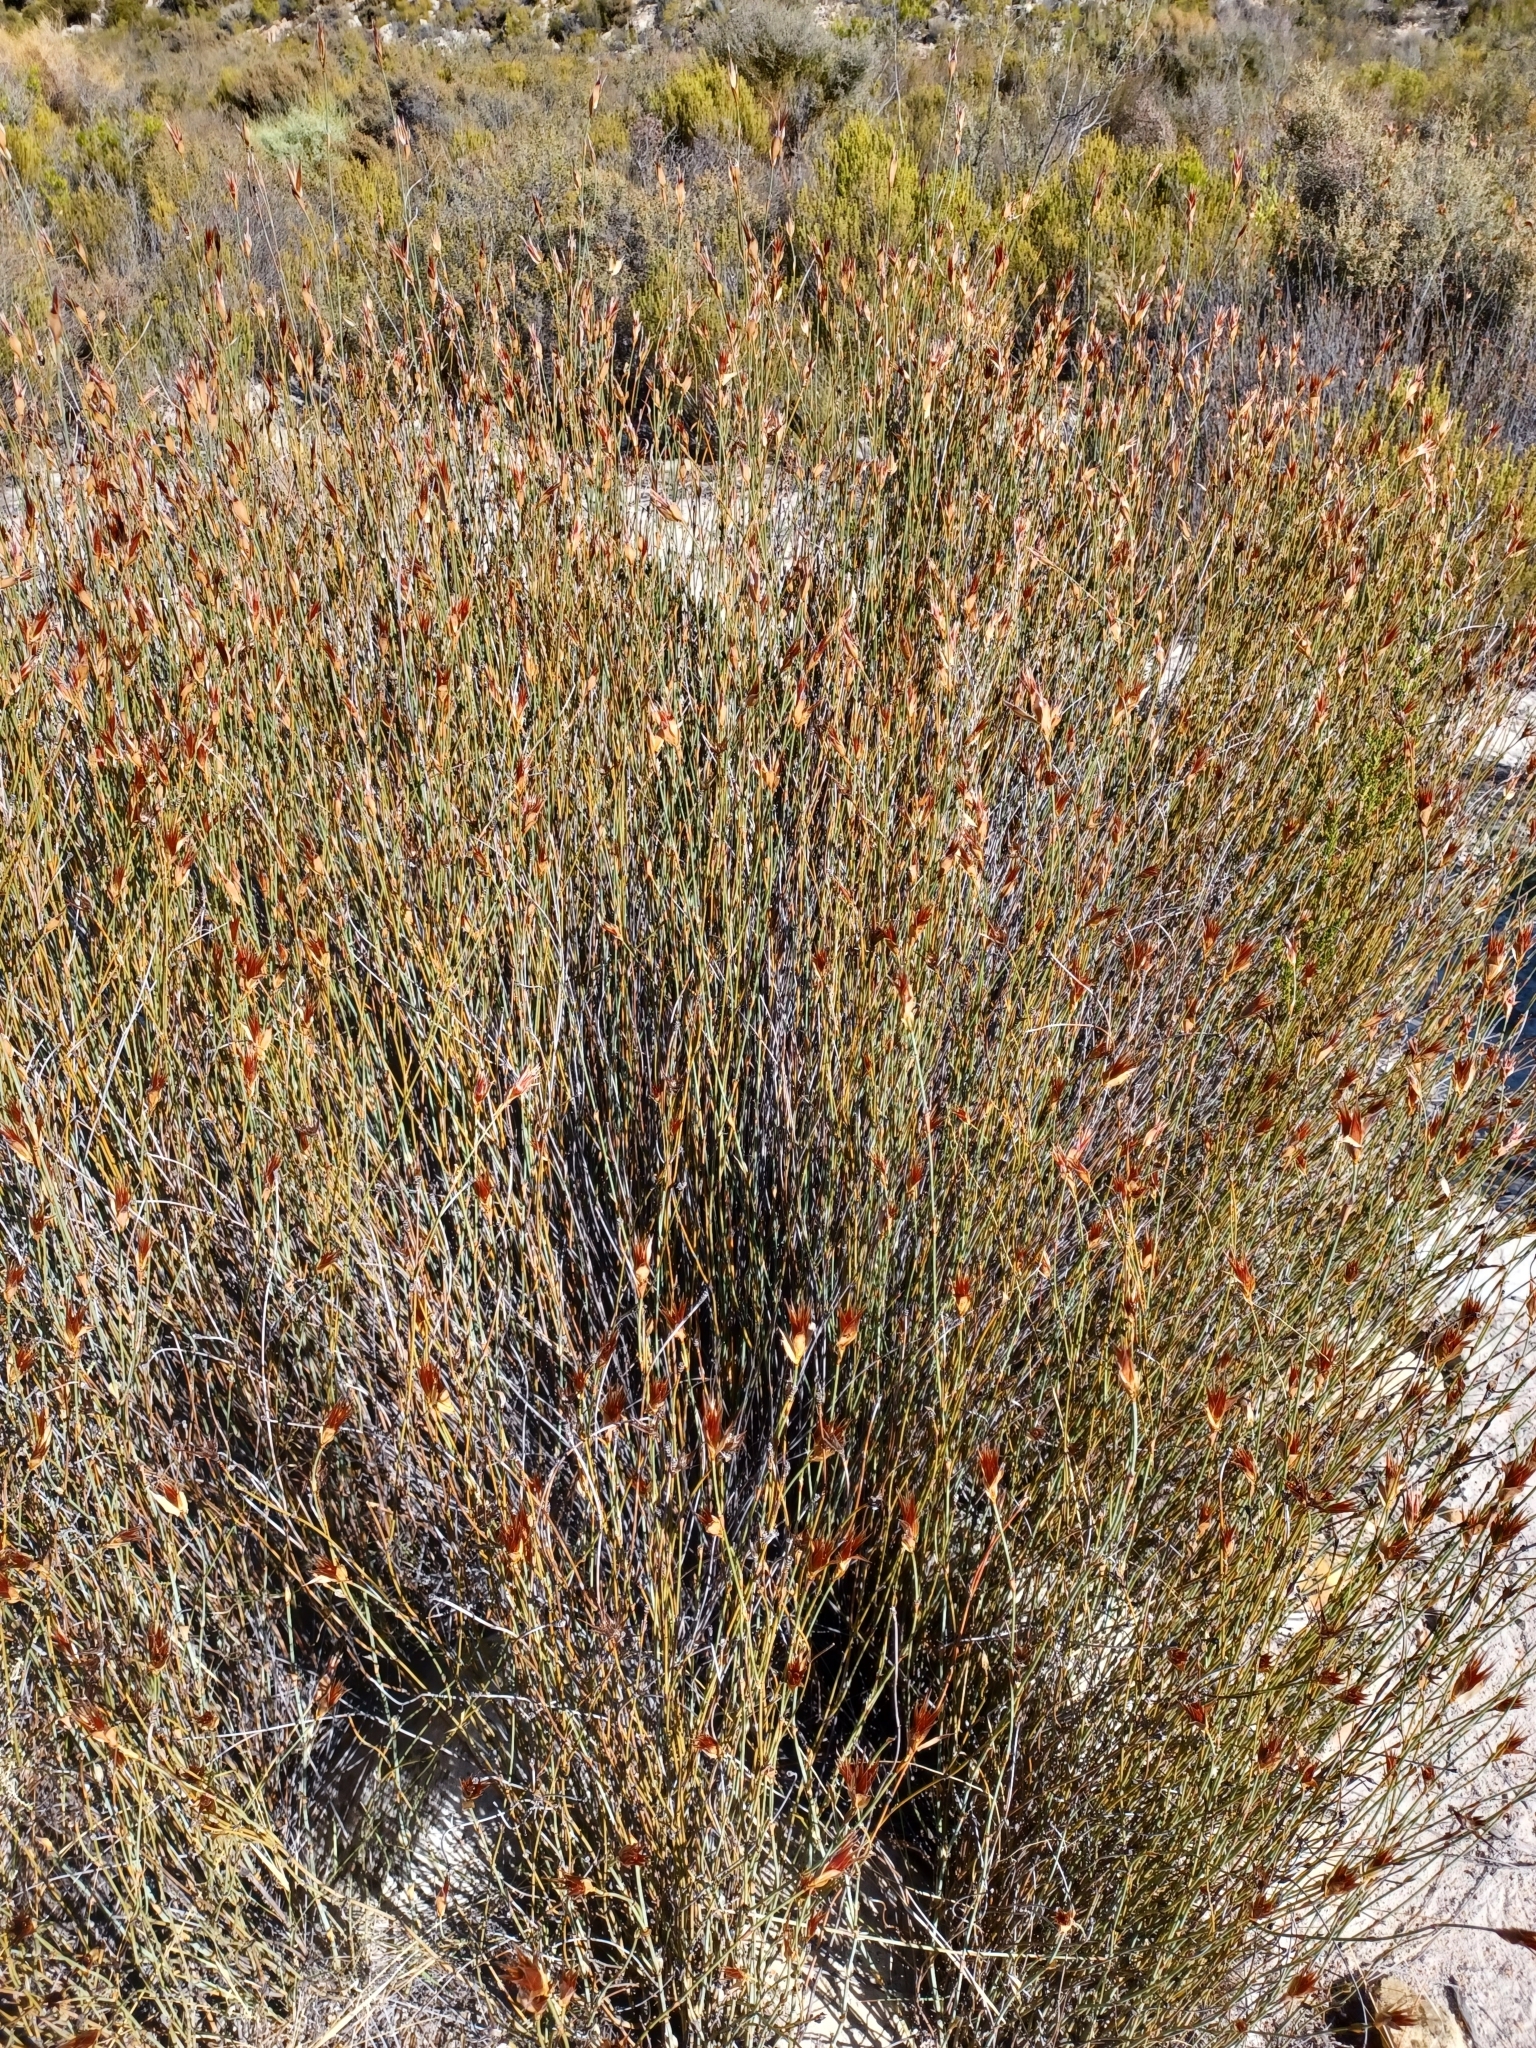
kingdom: Plantae
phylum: Tracheophyta
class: Liliopsida
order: Poales
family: Restionaceae
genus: Willdenowia
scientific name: Willdenowia incurvata
